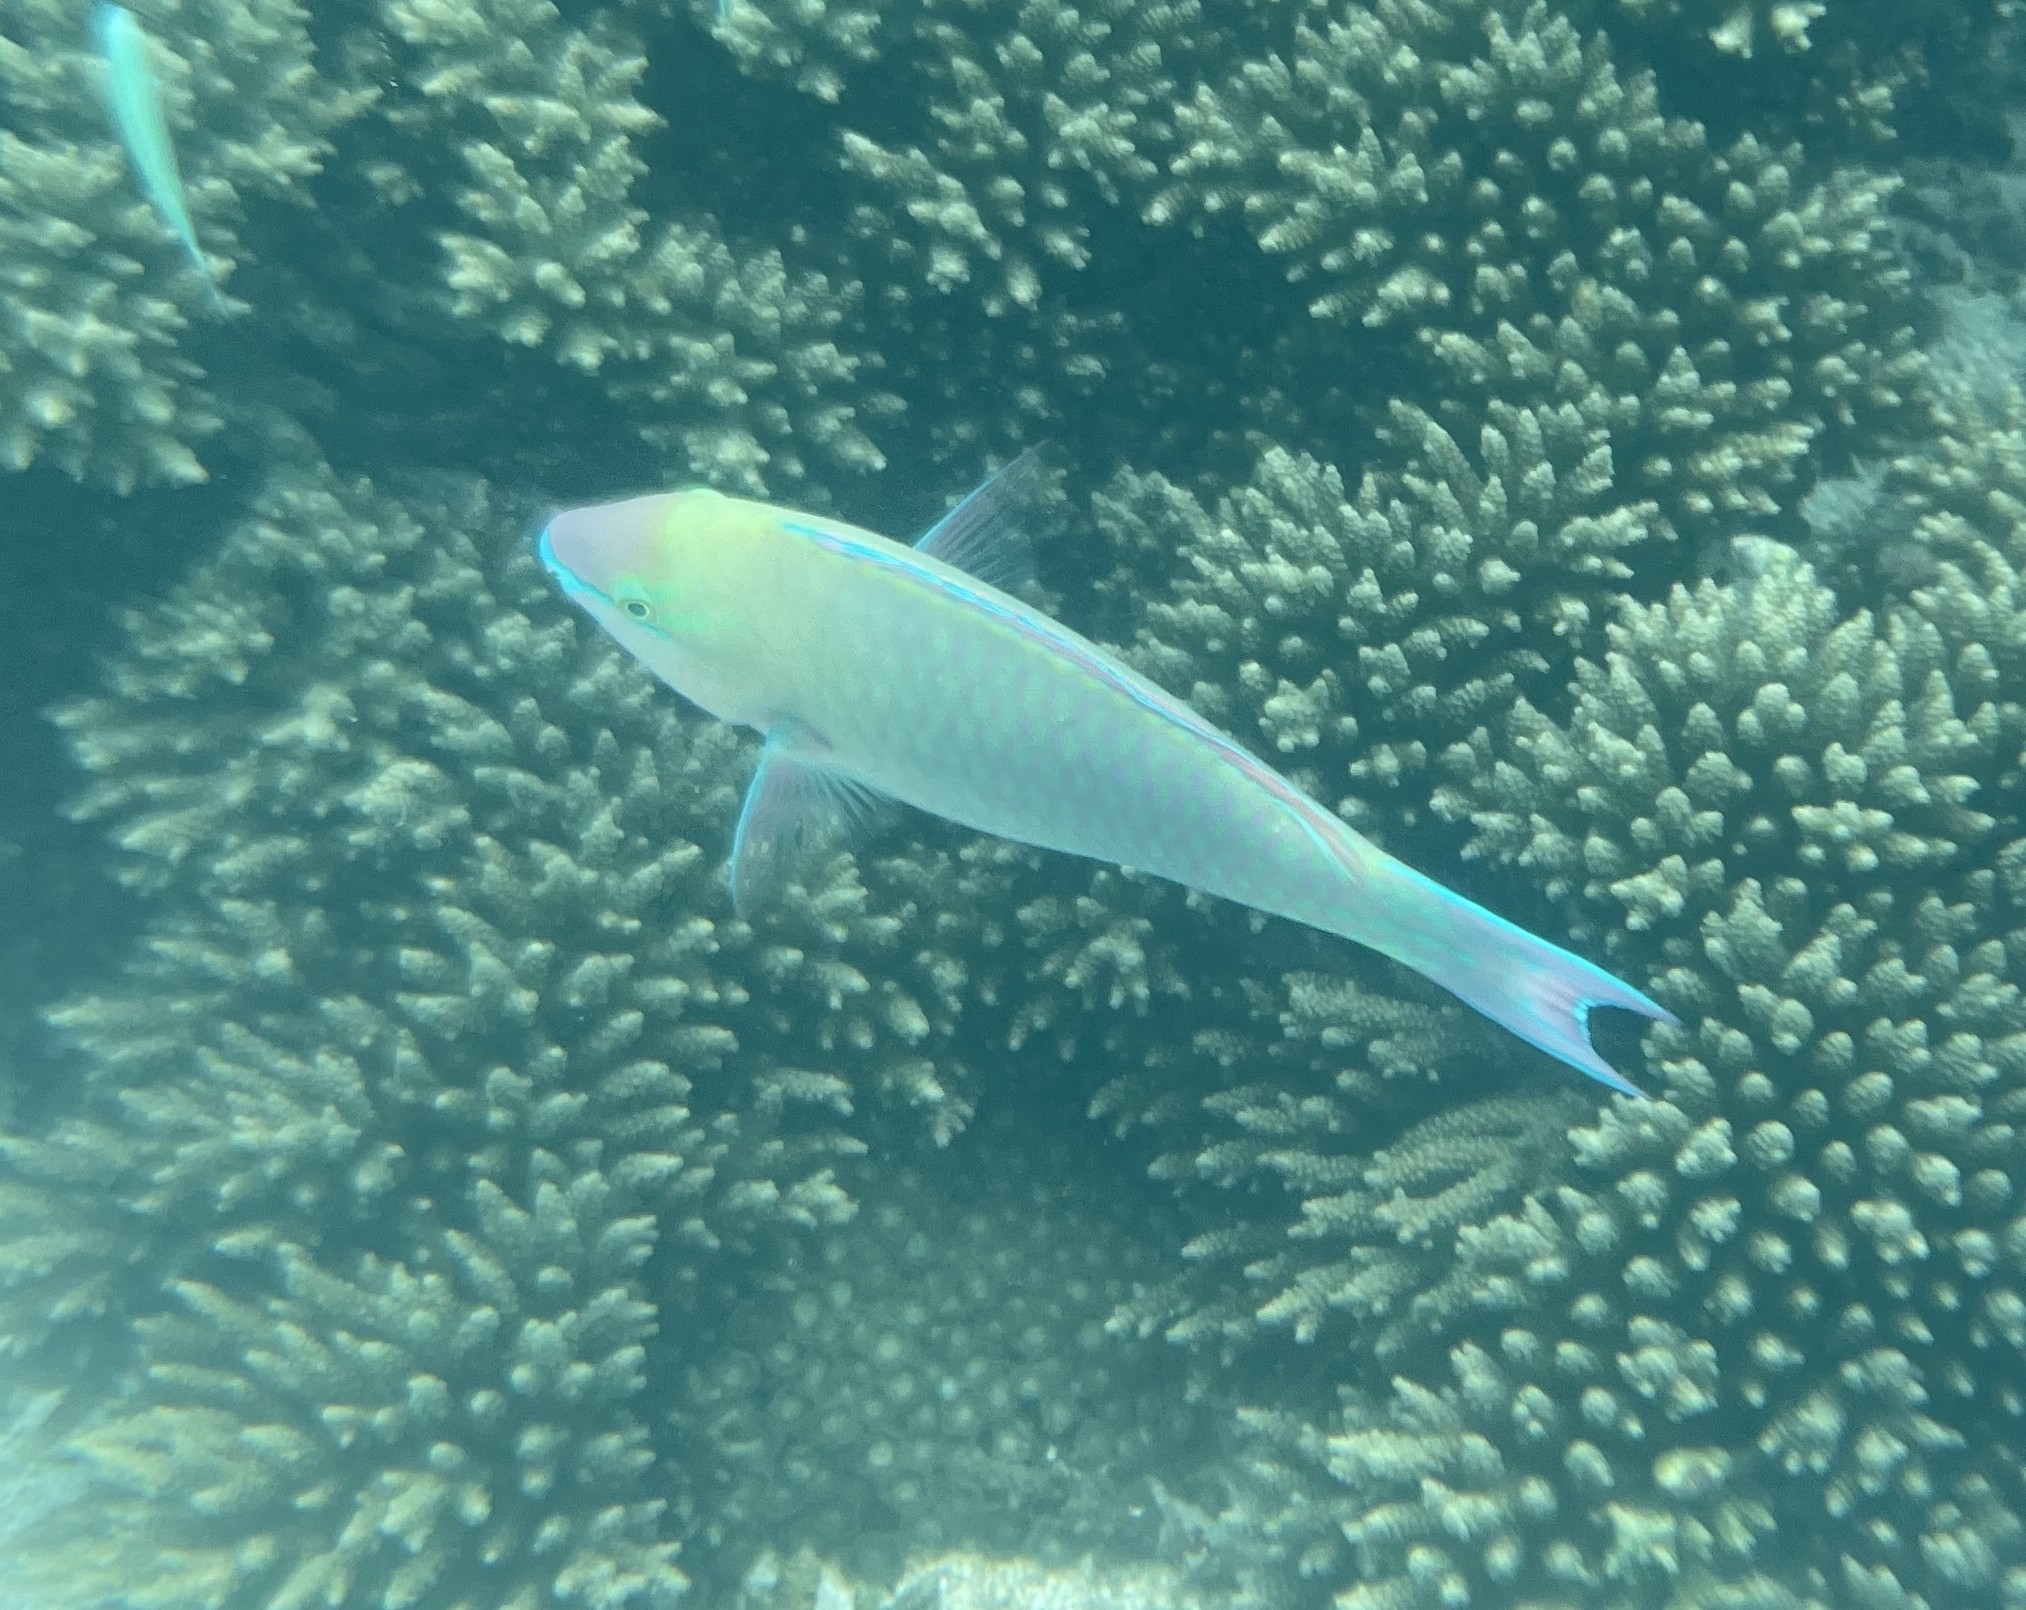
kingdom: Animalia
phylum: Chordata
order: Perciformes
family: Scaridae
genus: Scarus
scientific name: Scarus psittacus
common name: Palenose parrotfish
